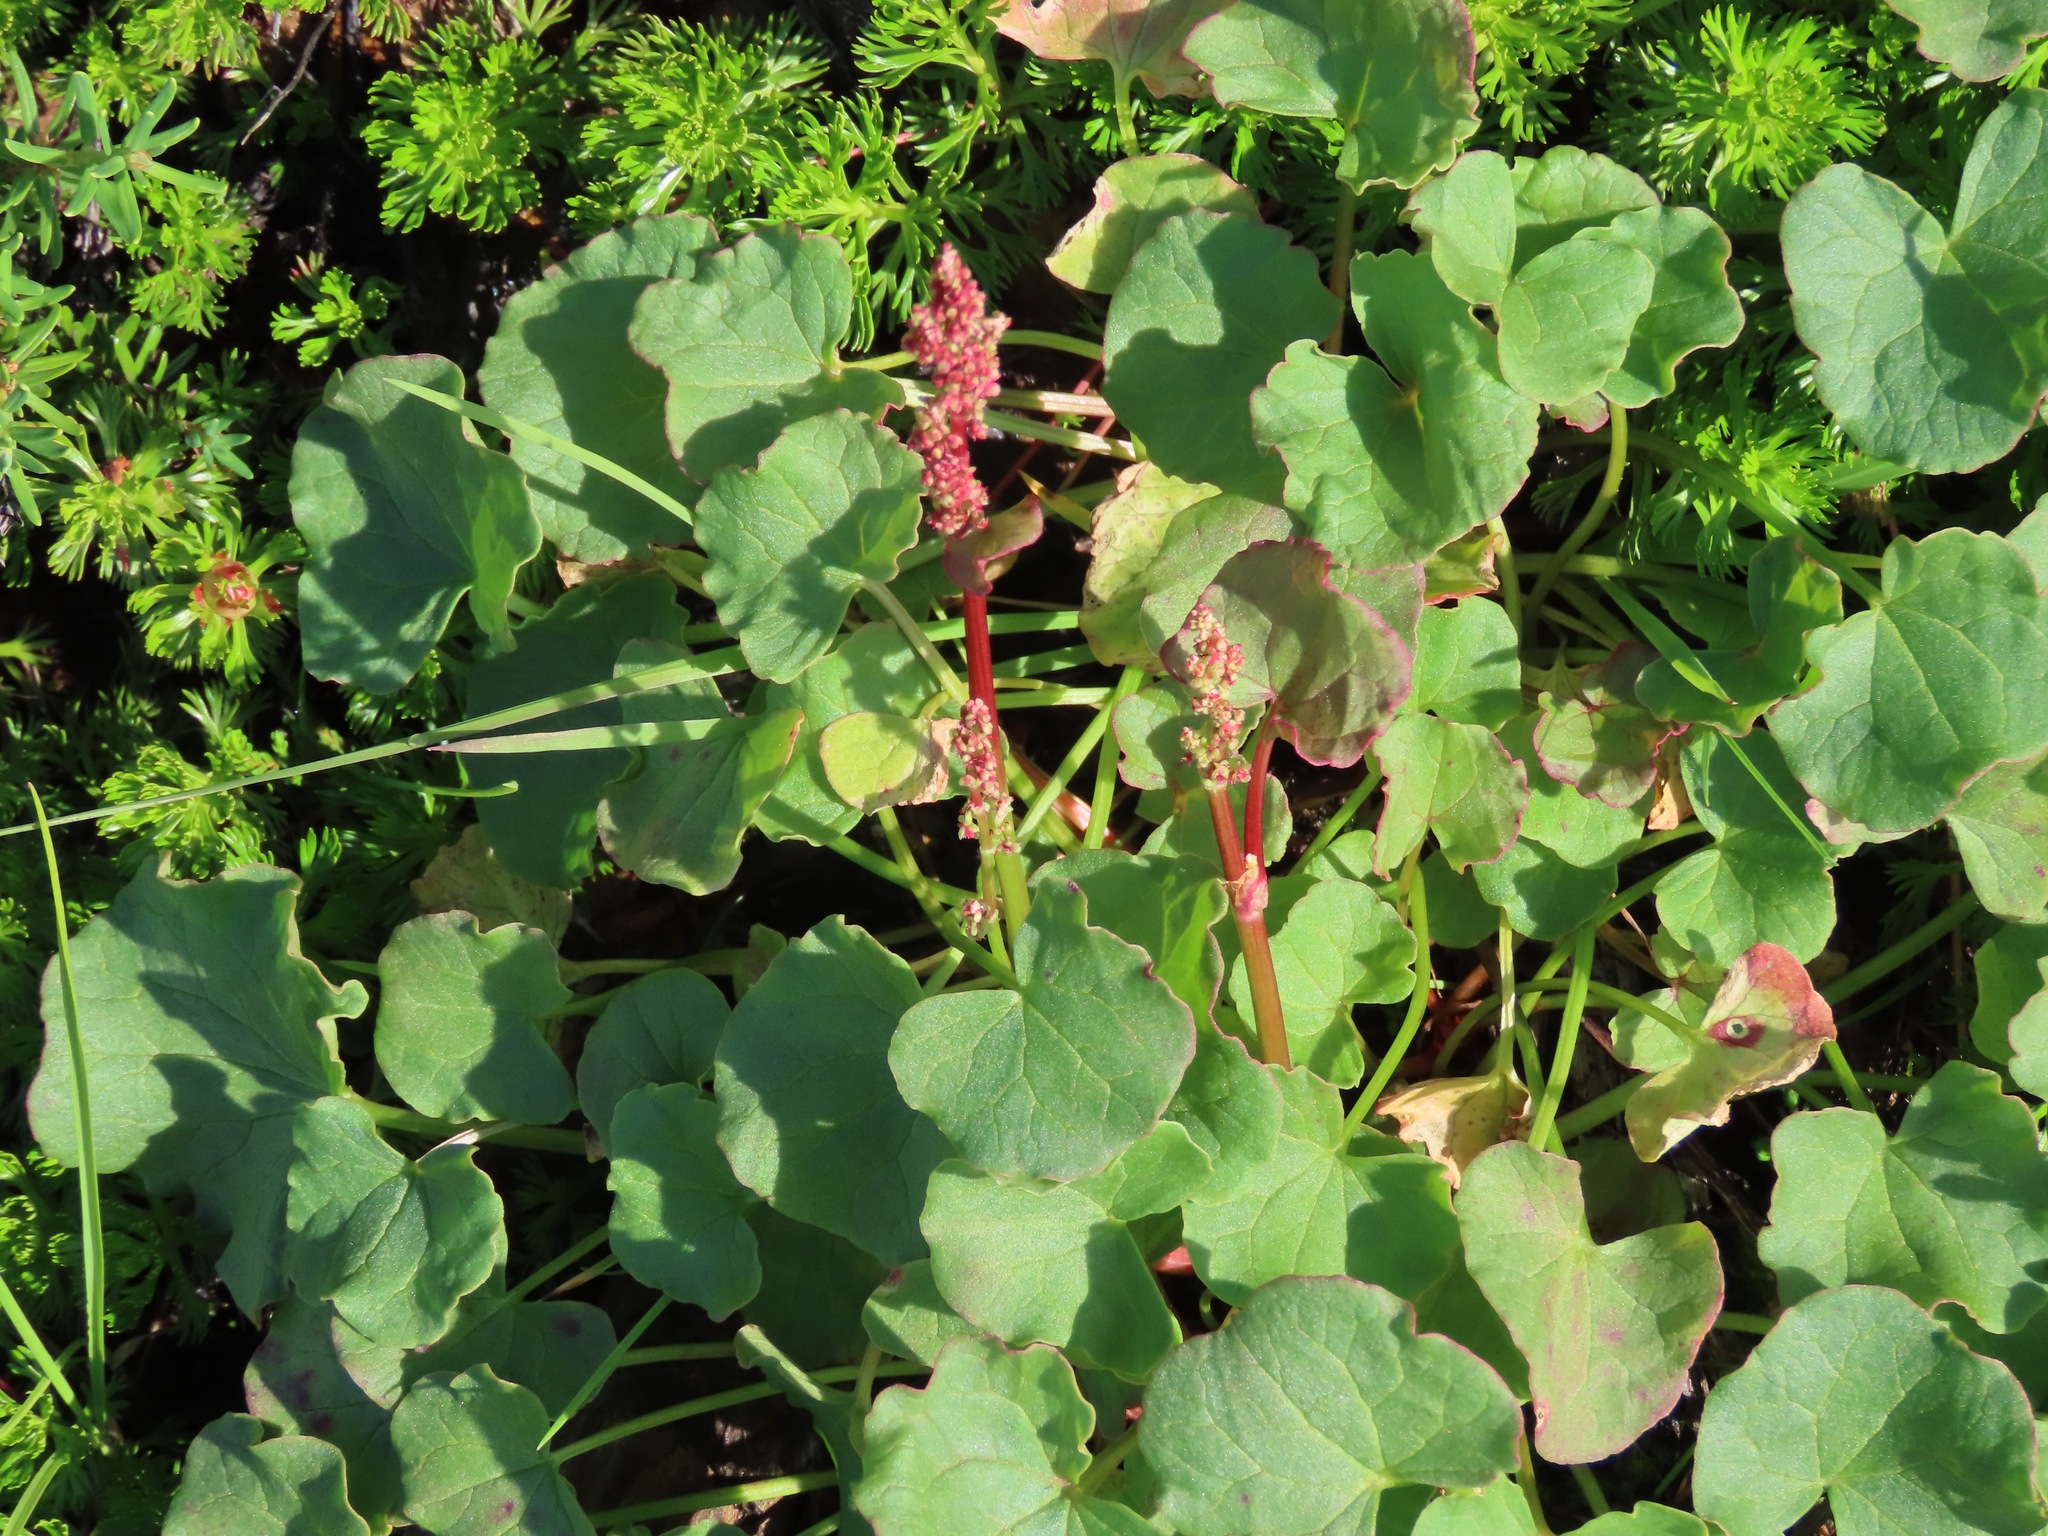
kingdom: Plantae
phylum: Tracheophyta
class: Magnoliopsida
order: Caryophyllales
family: Polygonaceae
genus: Oxyria
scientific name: Oxyria digyna
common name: Alpine mountain-sorrel
